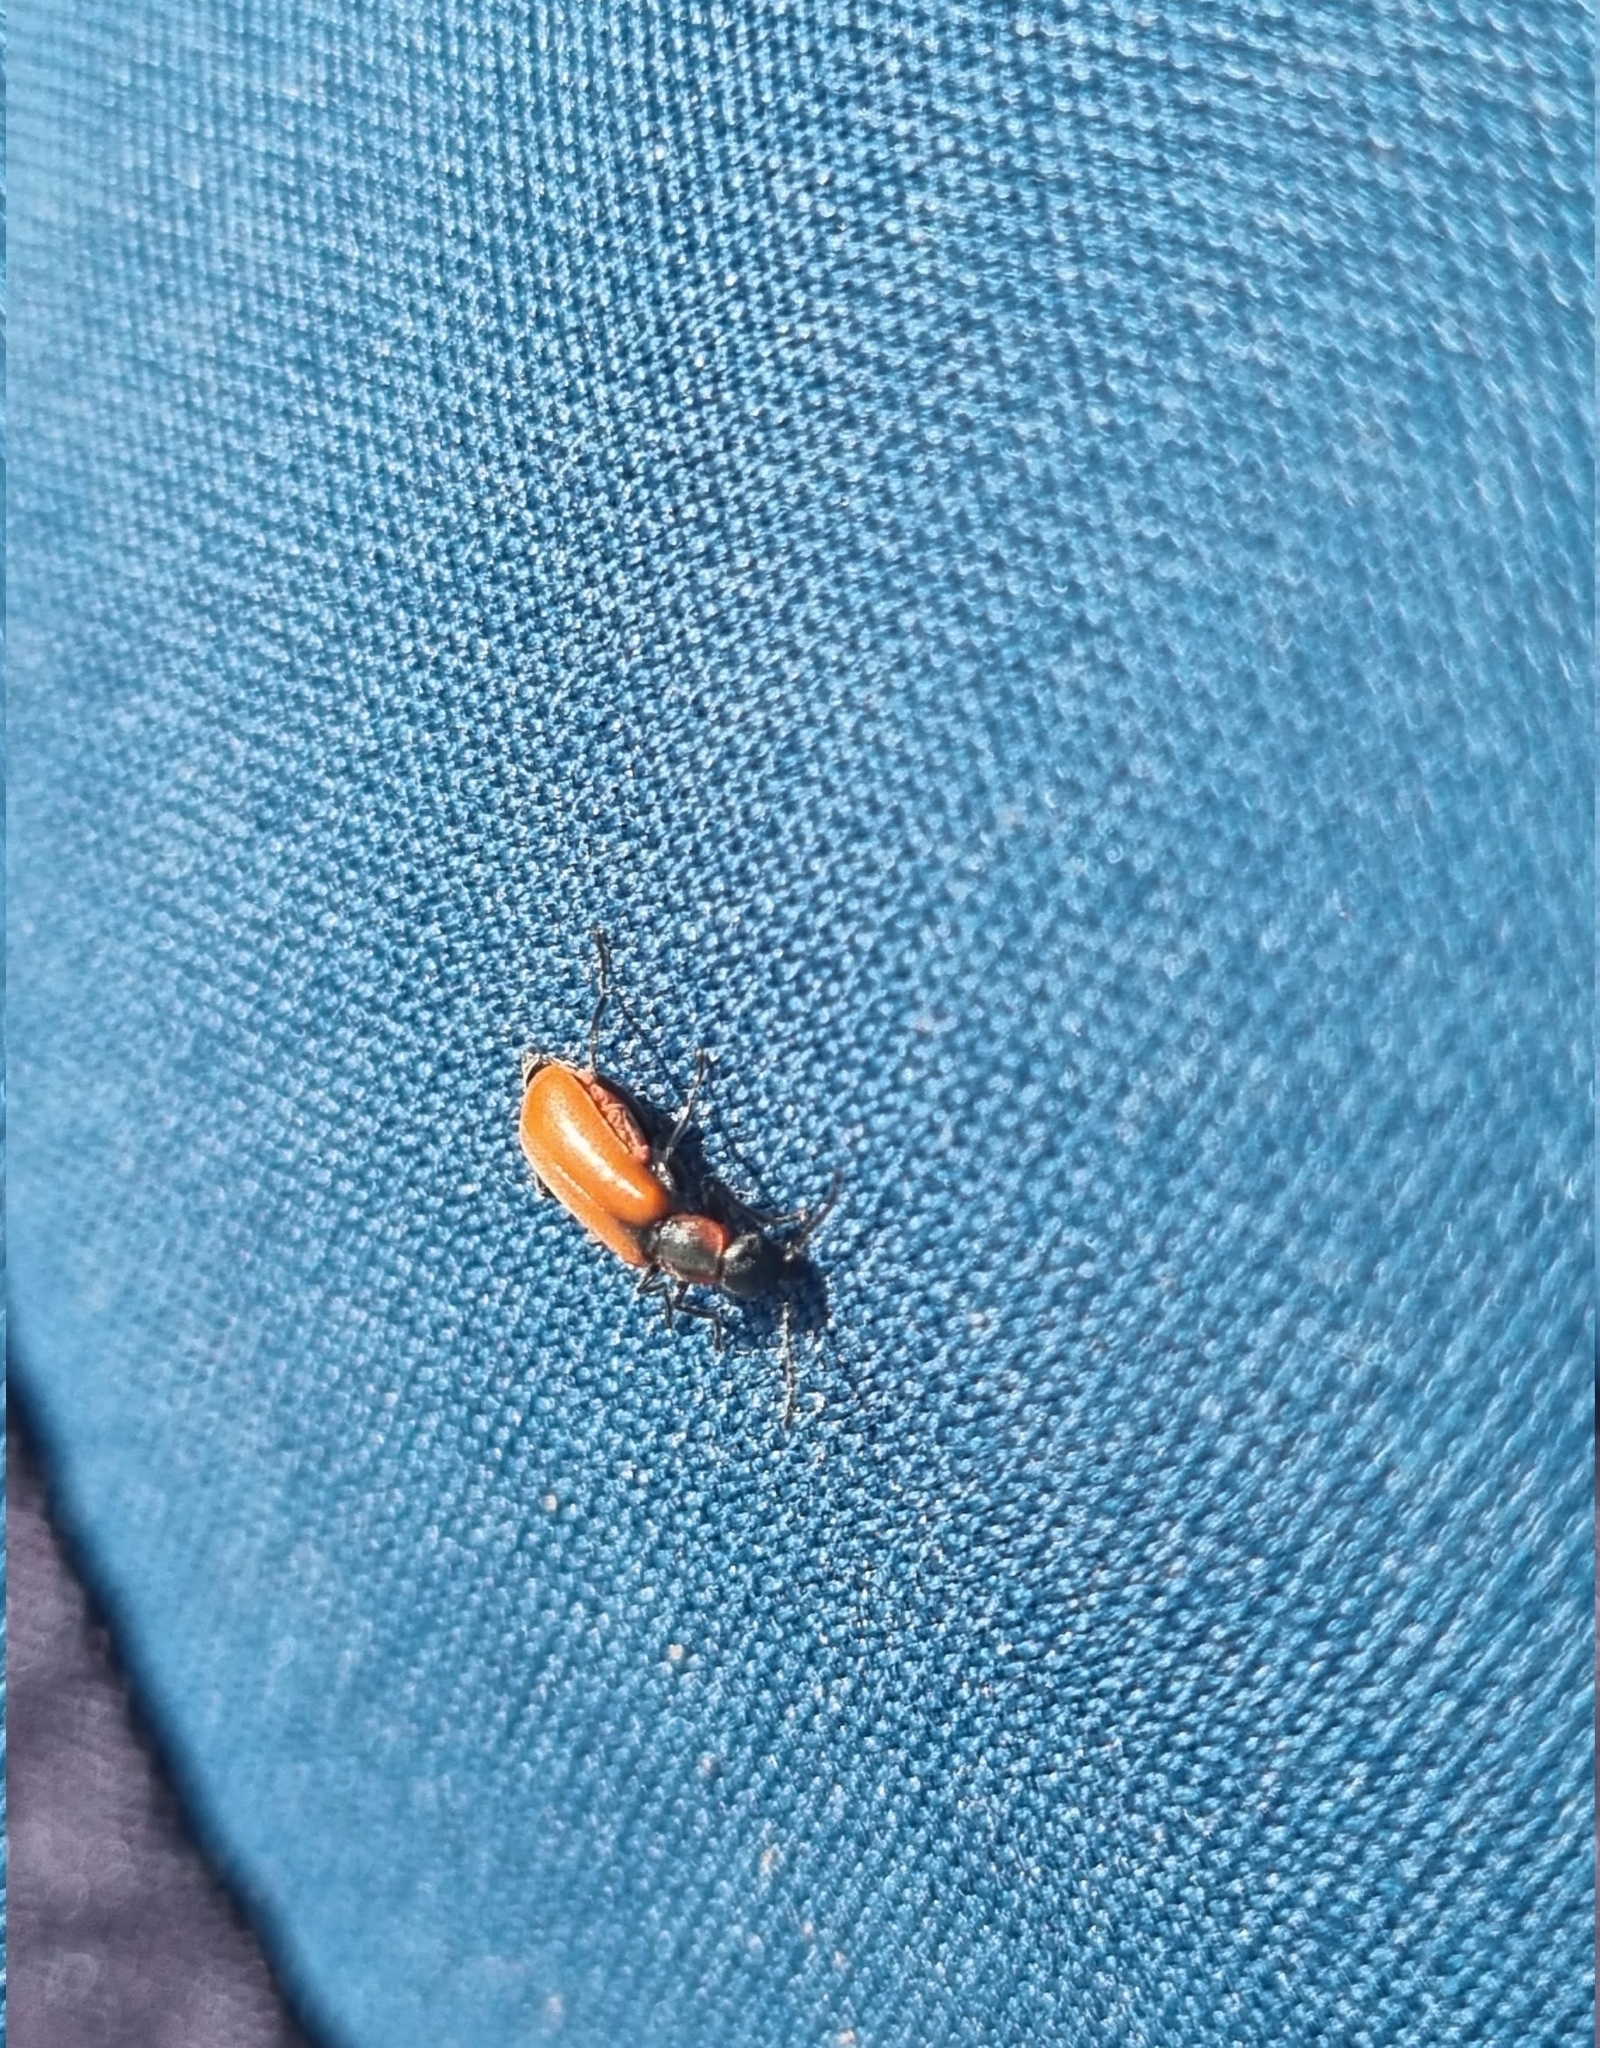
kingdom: Animalia
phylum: Arthropoda
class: Insecta
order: Coleoptera
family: Melyridae
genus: Anthocomus
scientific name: Anthocomus rufus
